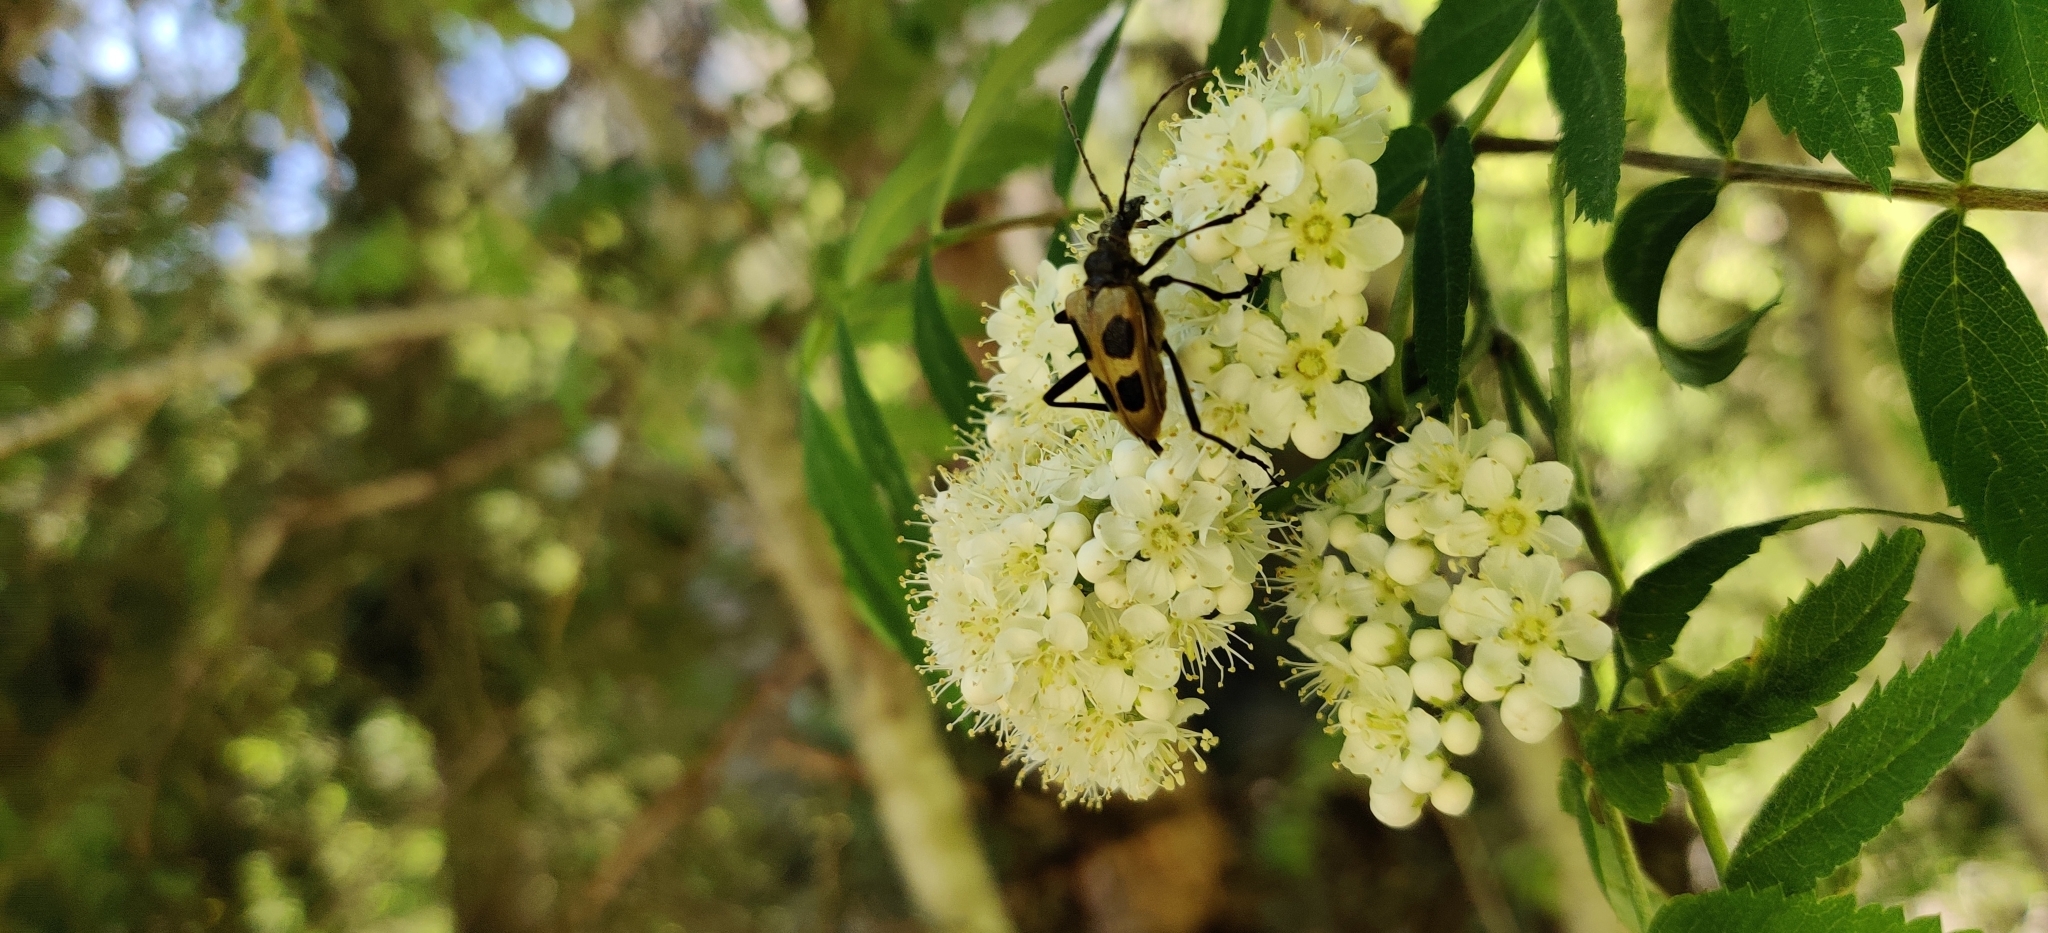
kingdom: Animalia
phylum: Arthropoda
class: Insecta
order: Coleoptera
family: Cerambycidae
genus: Pachyta
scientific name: Pachyta quadrimaculata
